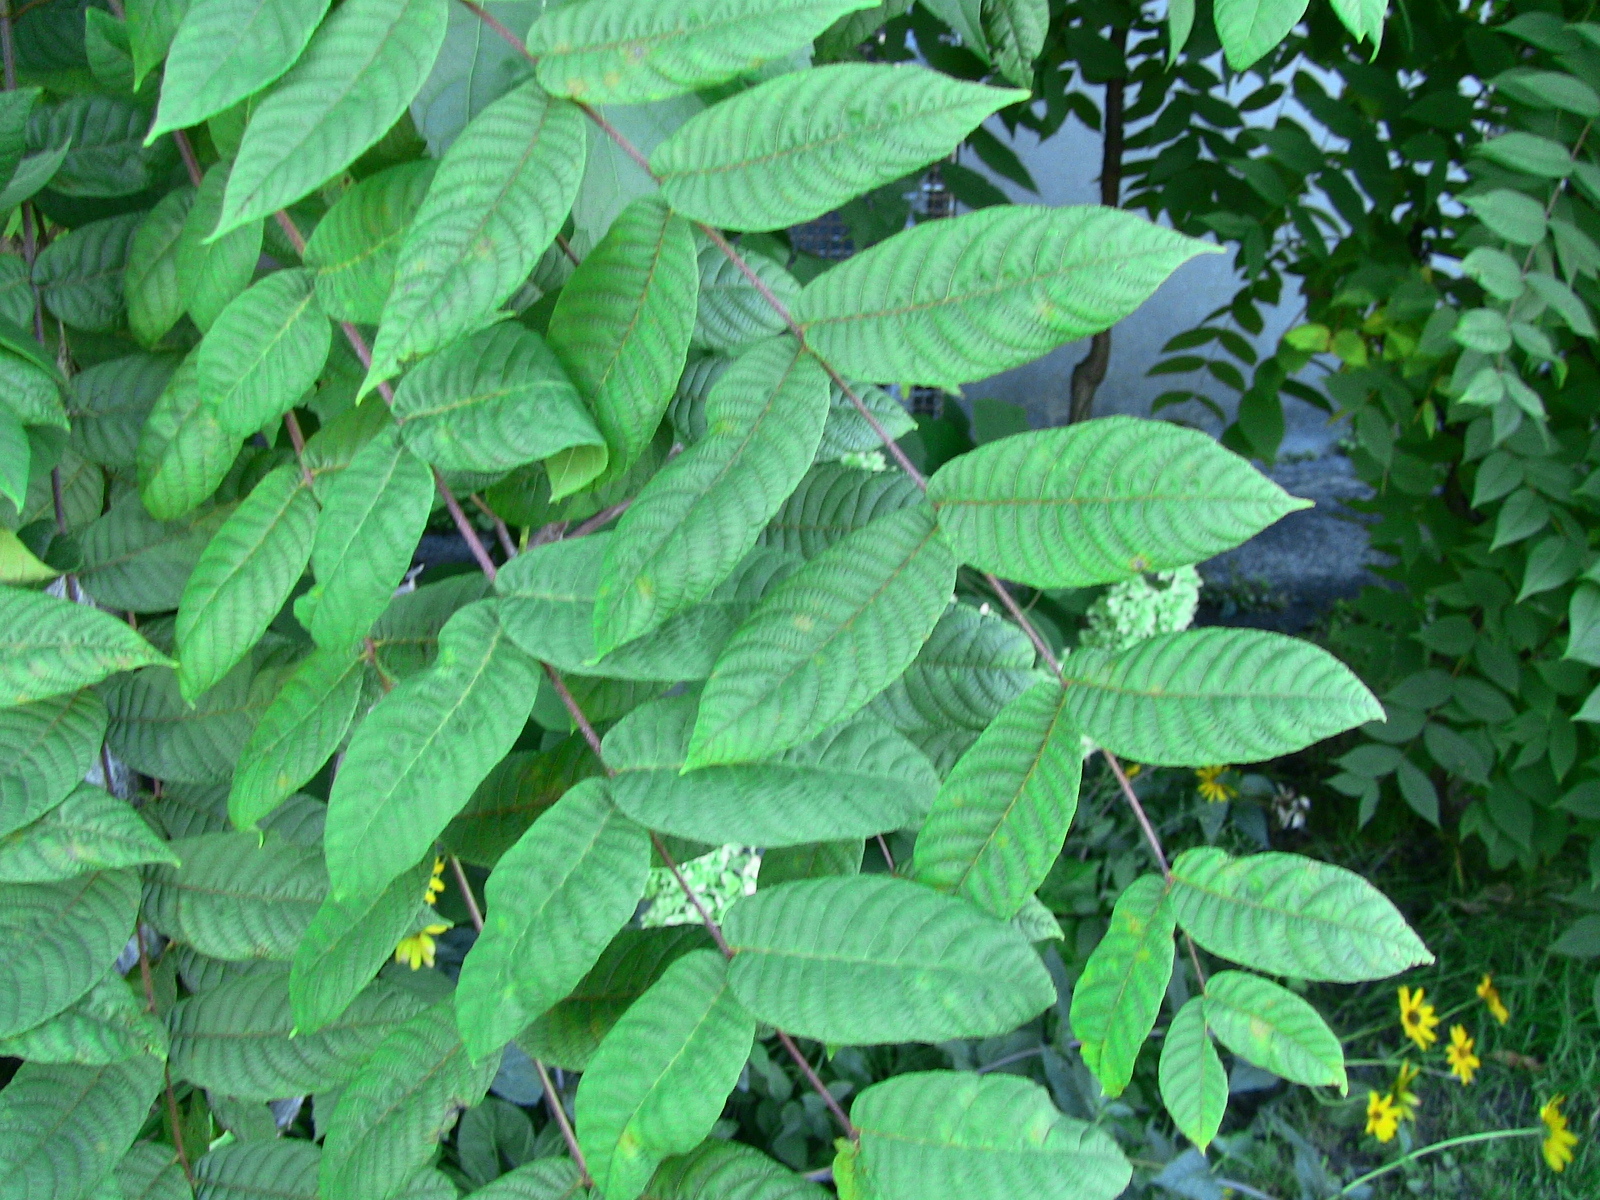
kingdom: Plantae
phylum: Tracheophyta
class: Magnoliopsida
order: Fagales
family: Juglandaceae
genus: Juglans
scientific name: Juglans nigra
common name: Black walnut
